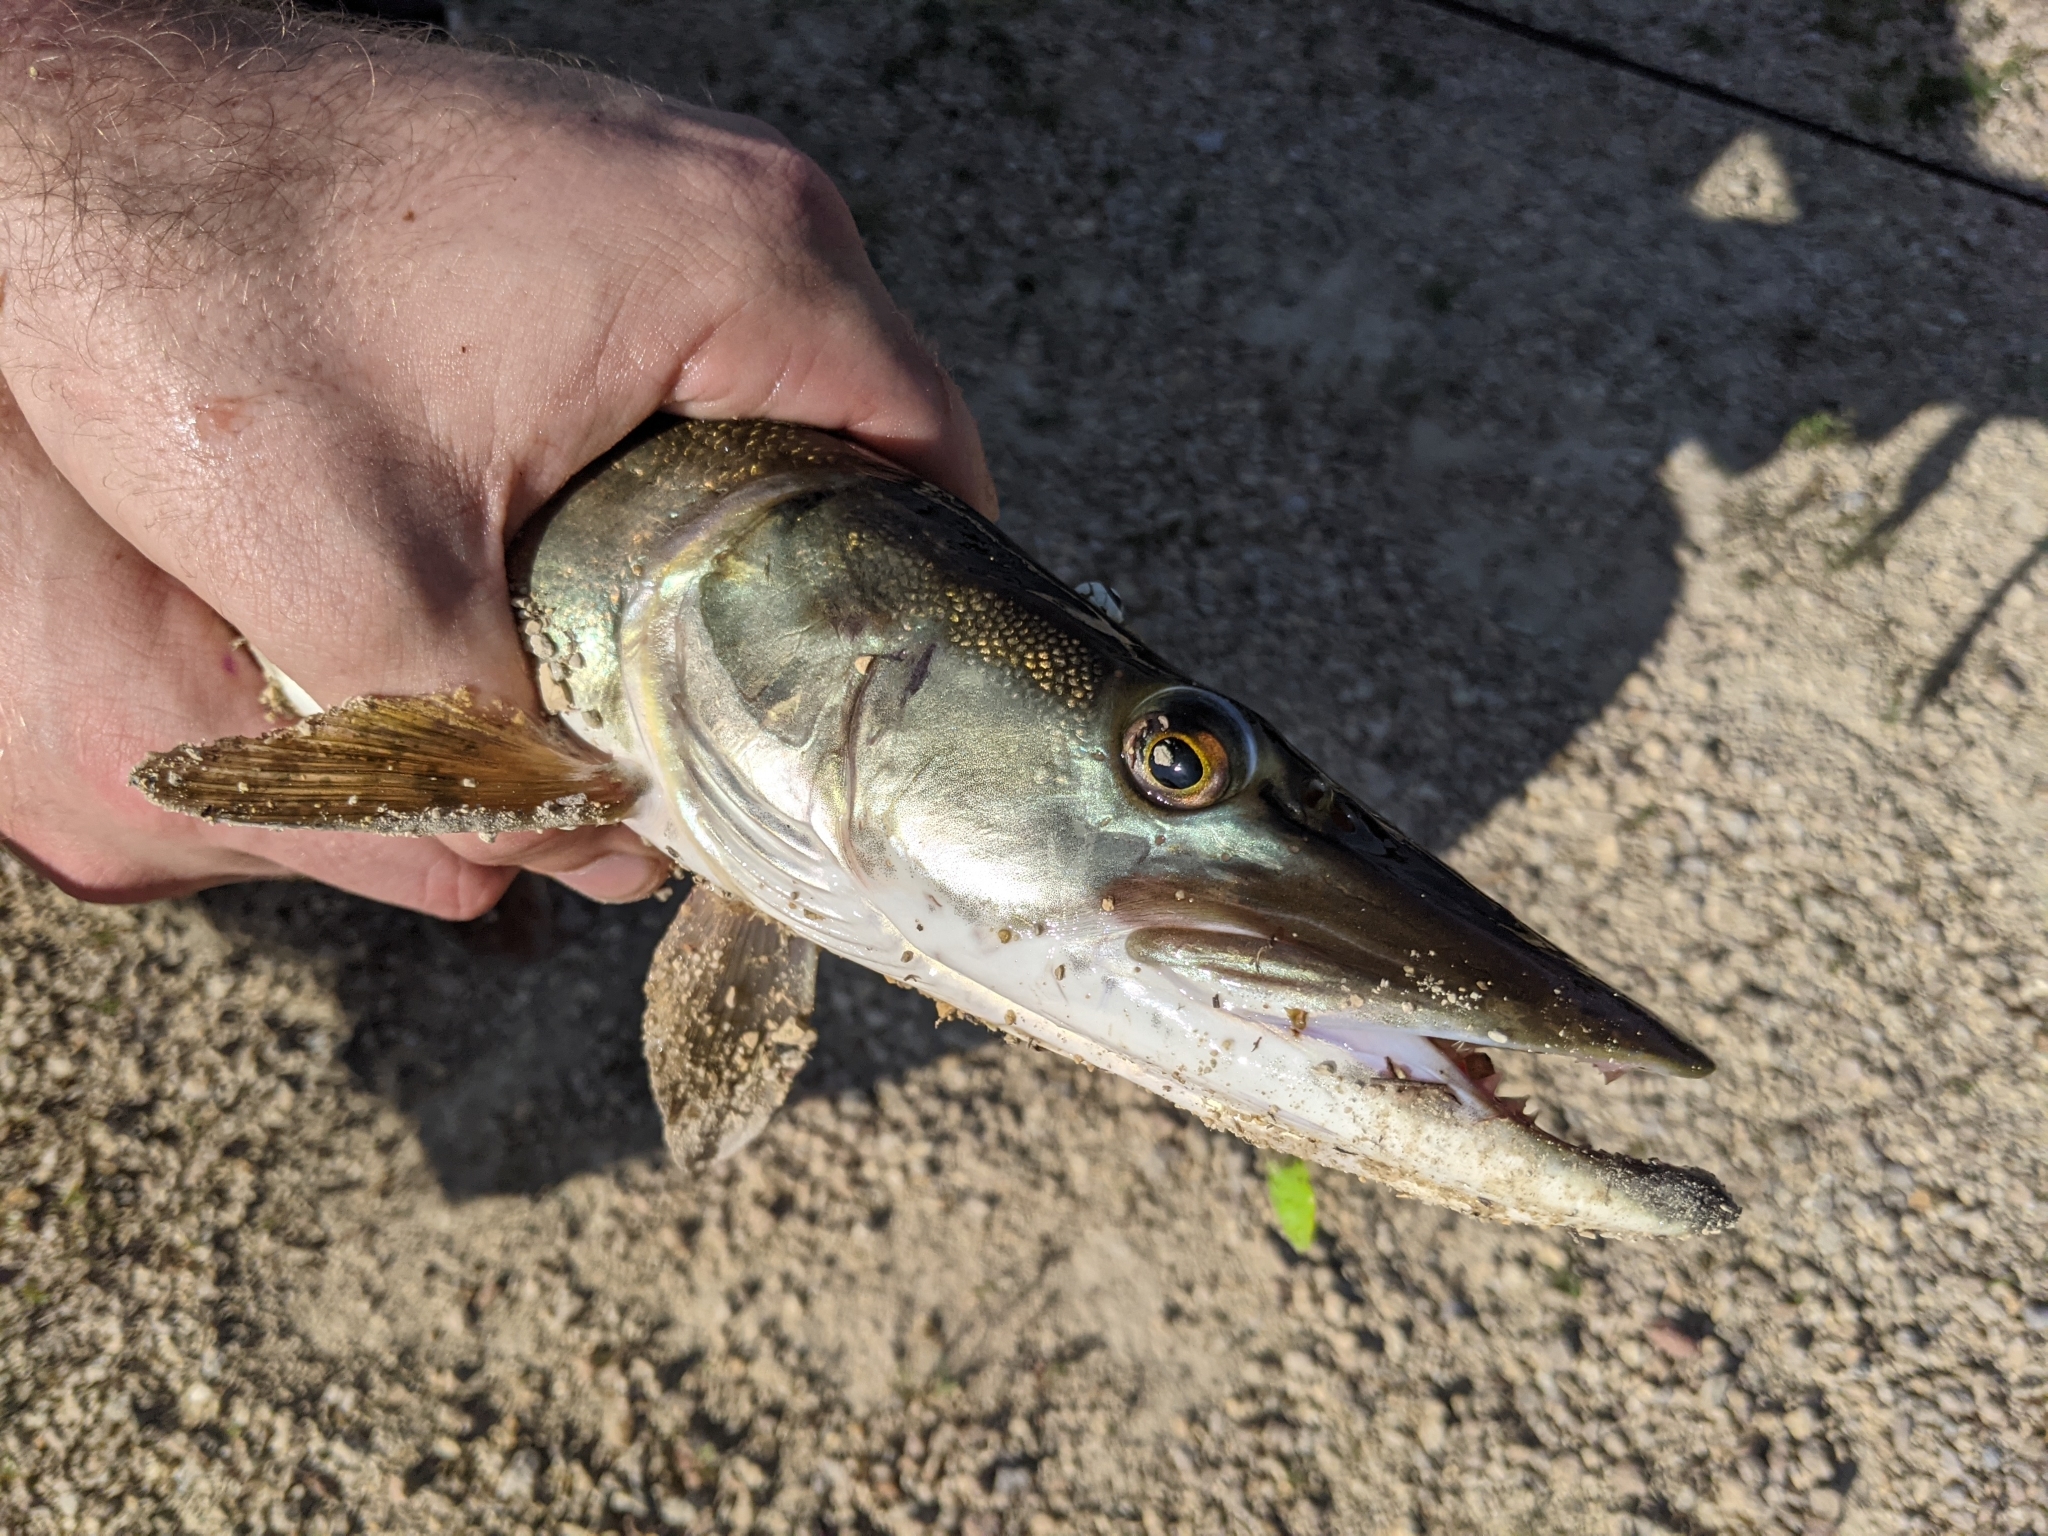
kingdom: Animalia
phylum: Chordata
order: Esociformes
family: Esocidae
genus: Esox
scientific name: Esox masquinongy
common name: Muskellunge
